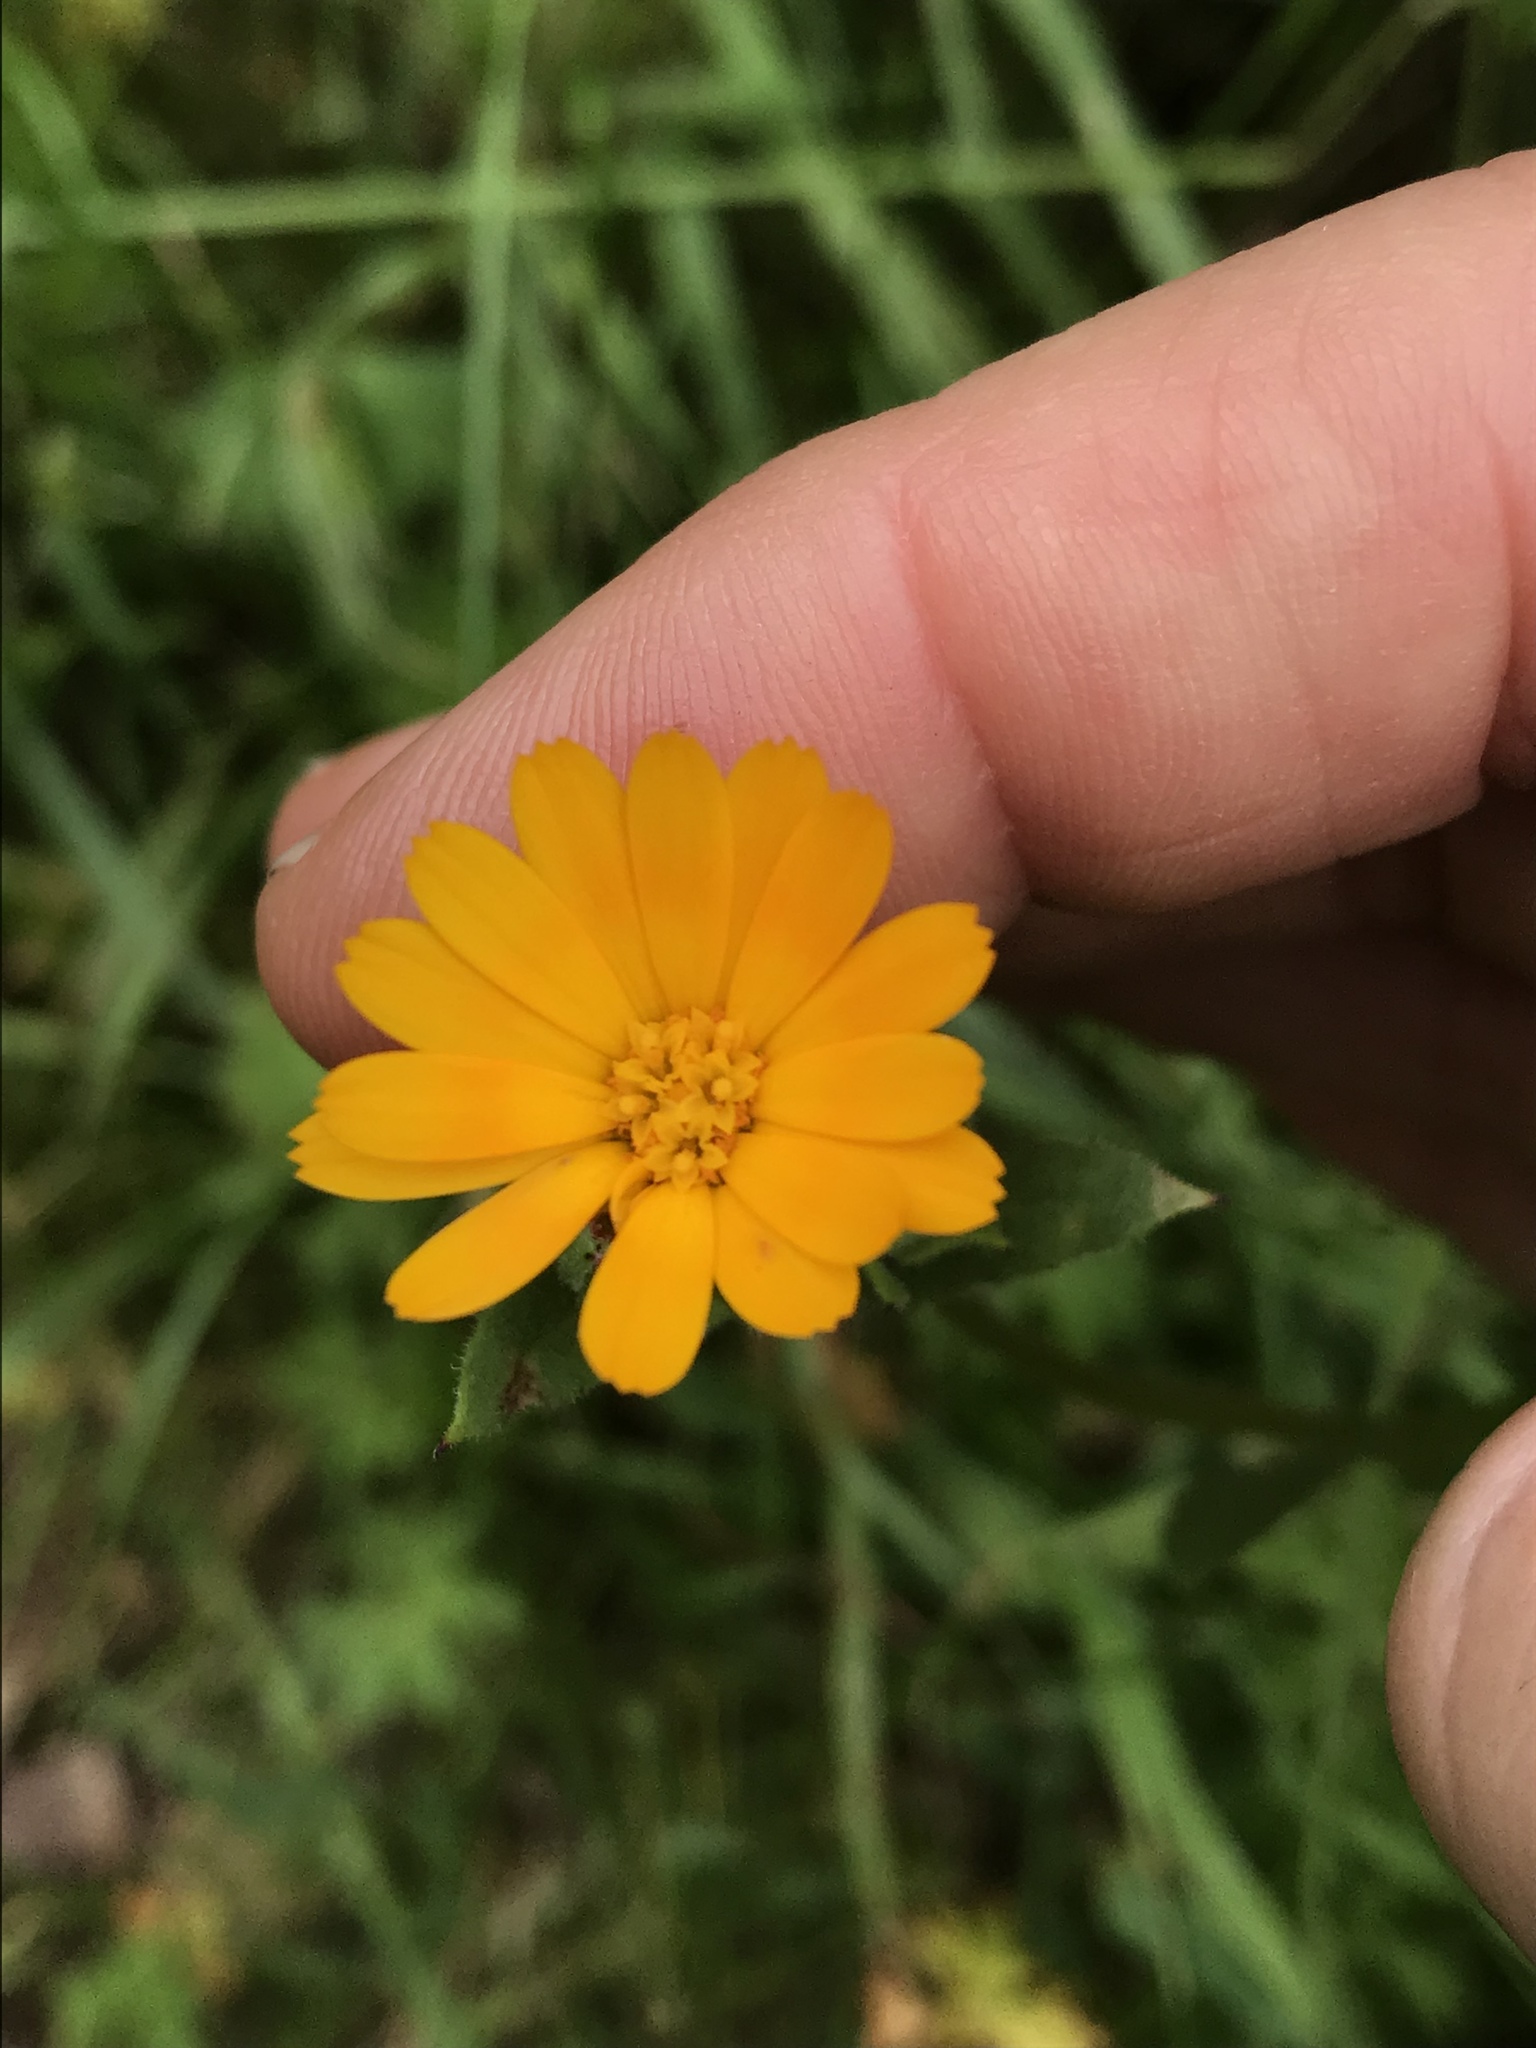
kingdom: Plantae
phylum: Tracheophyta
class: Magnoliopsida
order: Asterales
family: Asteraceae
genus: Calendula
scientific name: Calendula arvensis
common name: Field marigold
